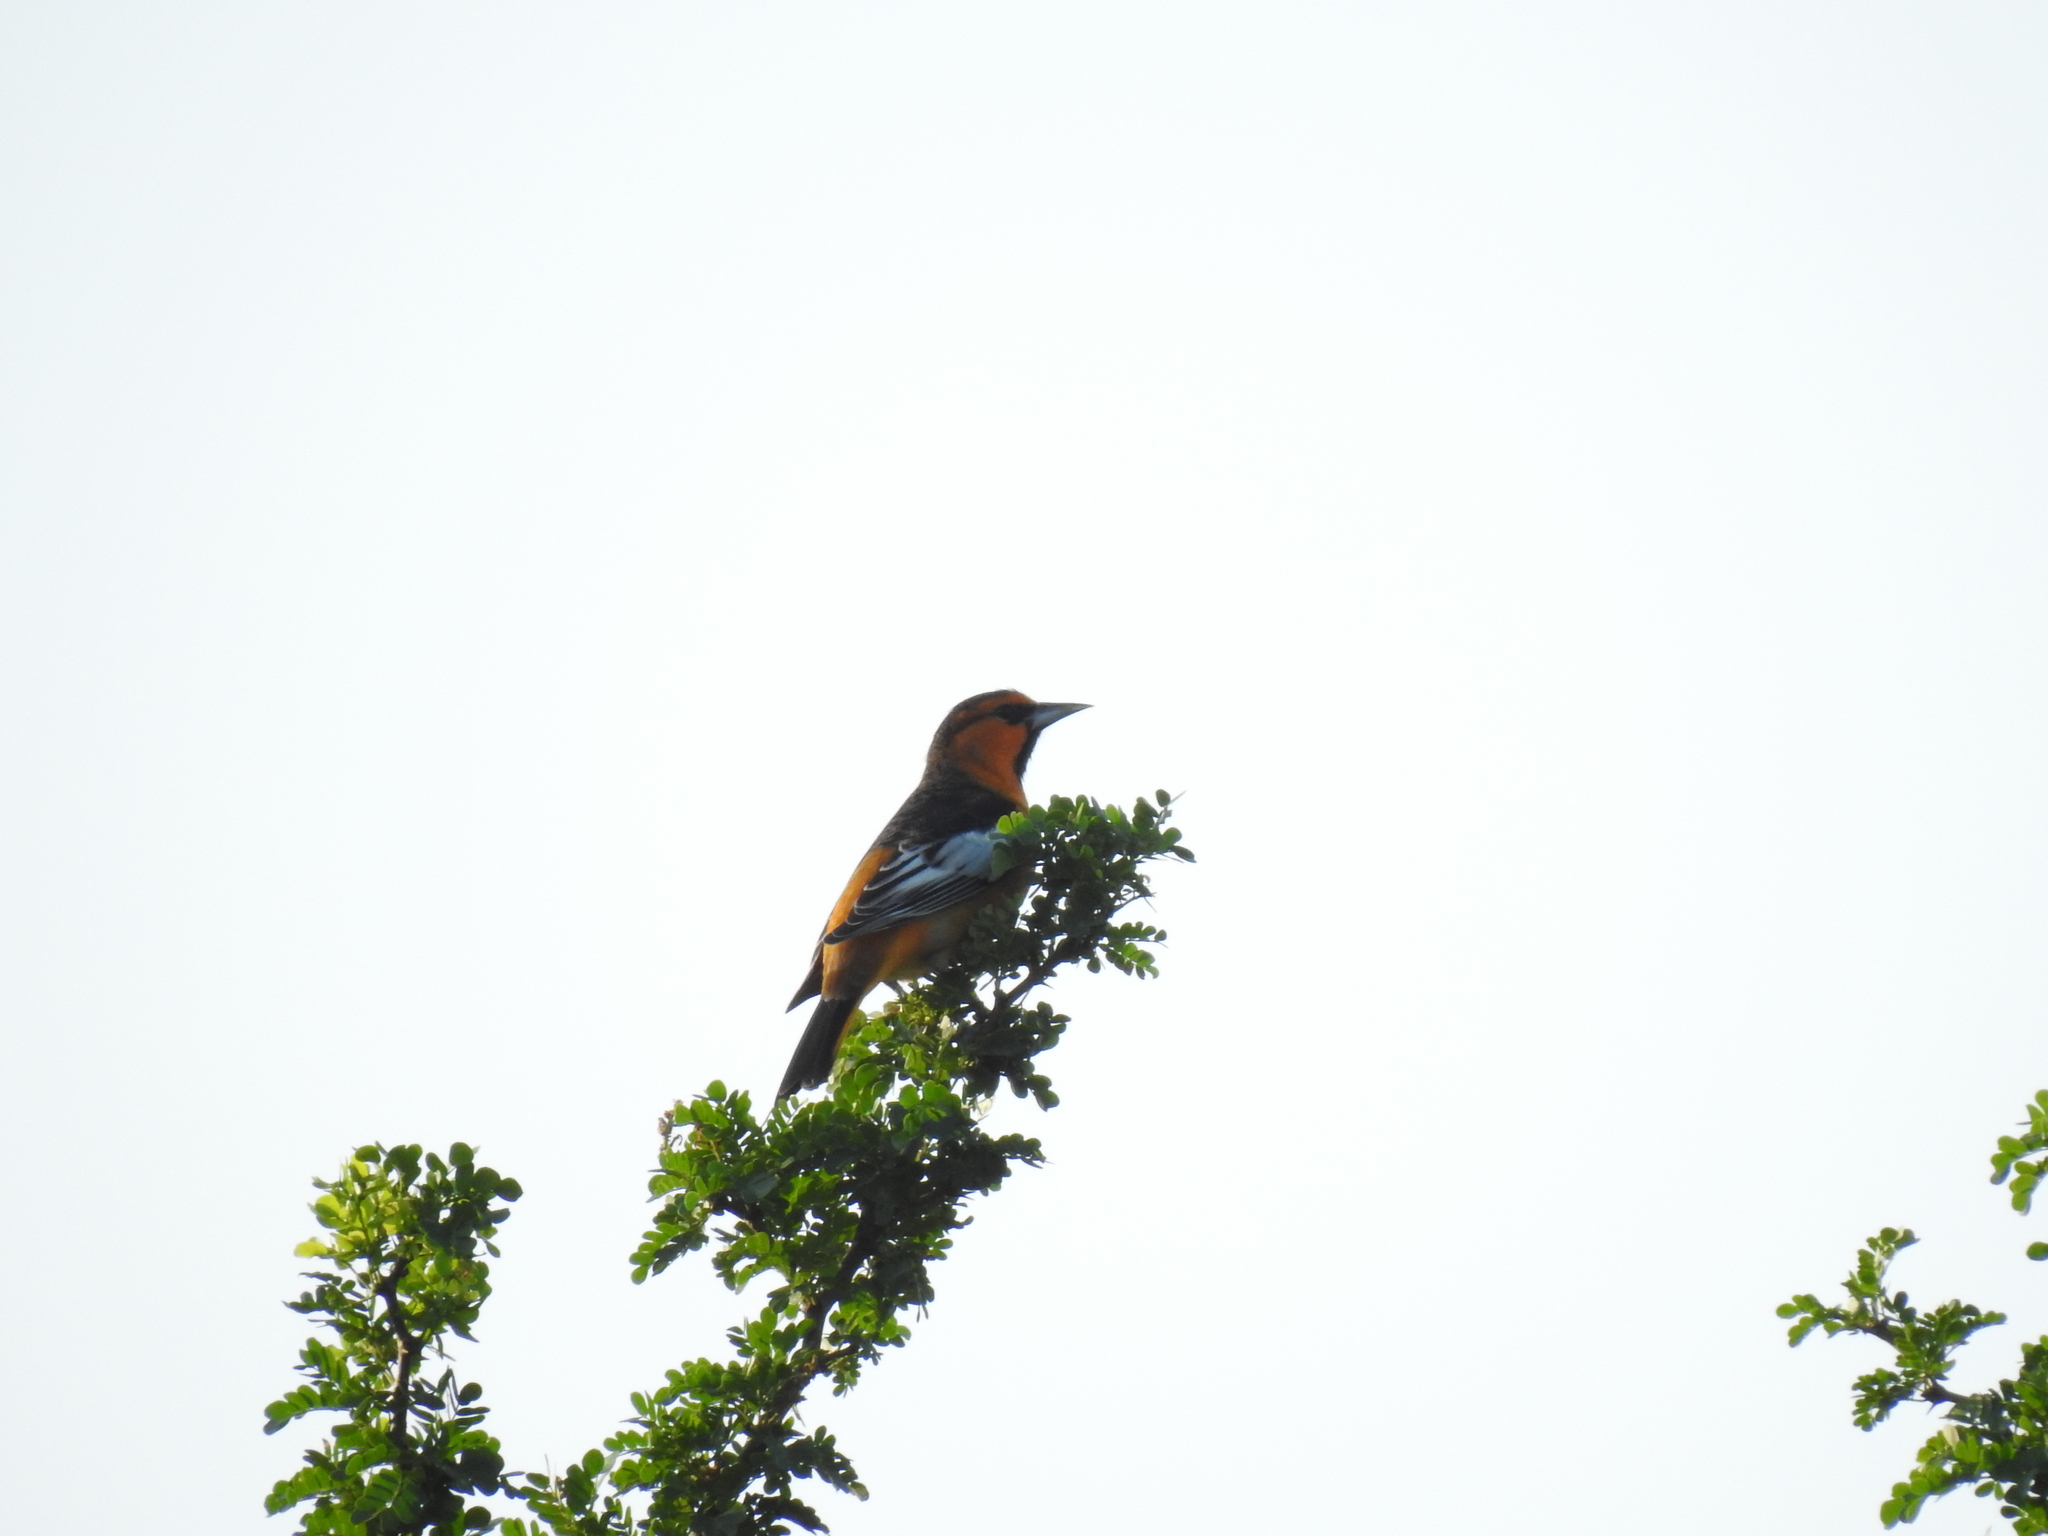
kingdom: Animalia
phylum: Chordata
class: Aves
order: Passeriformes
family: Icteridae
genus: Icterus
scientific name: Icterus bullockii
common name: Bullock's oriole
